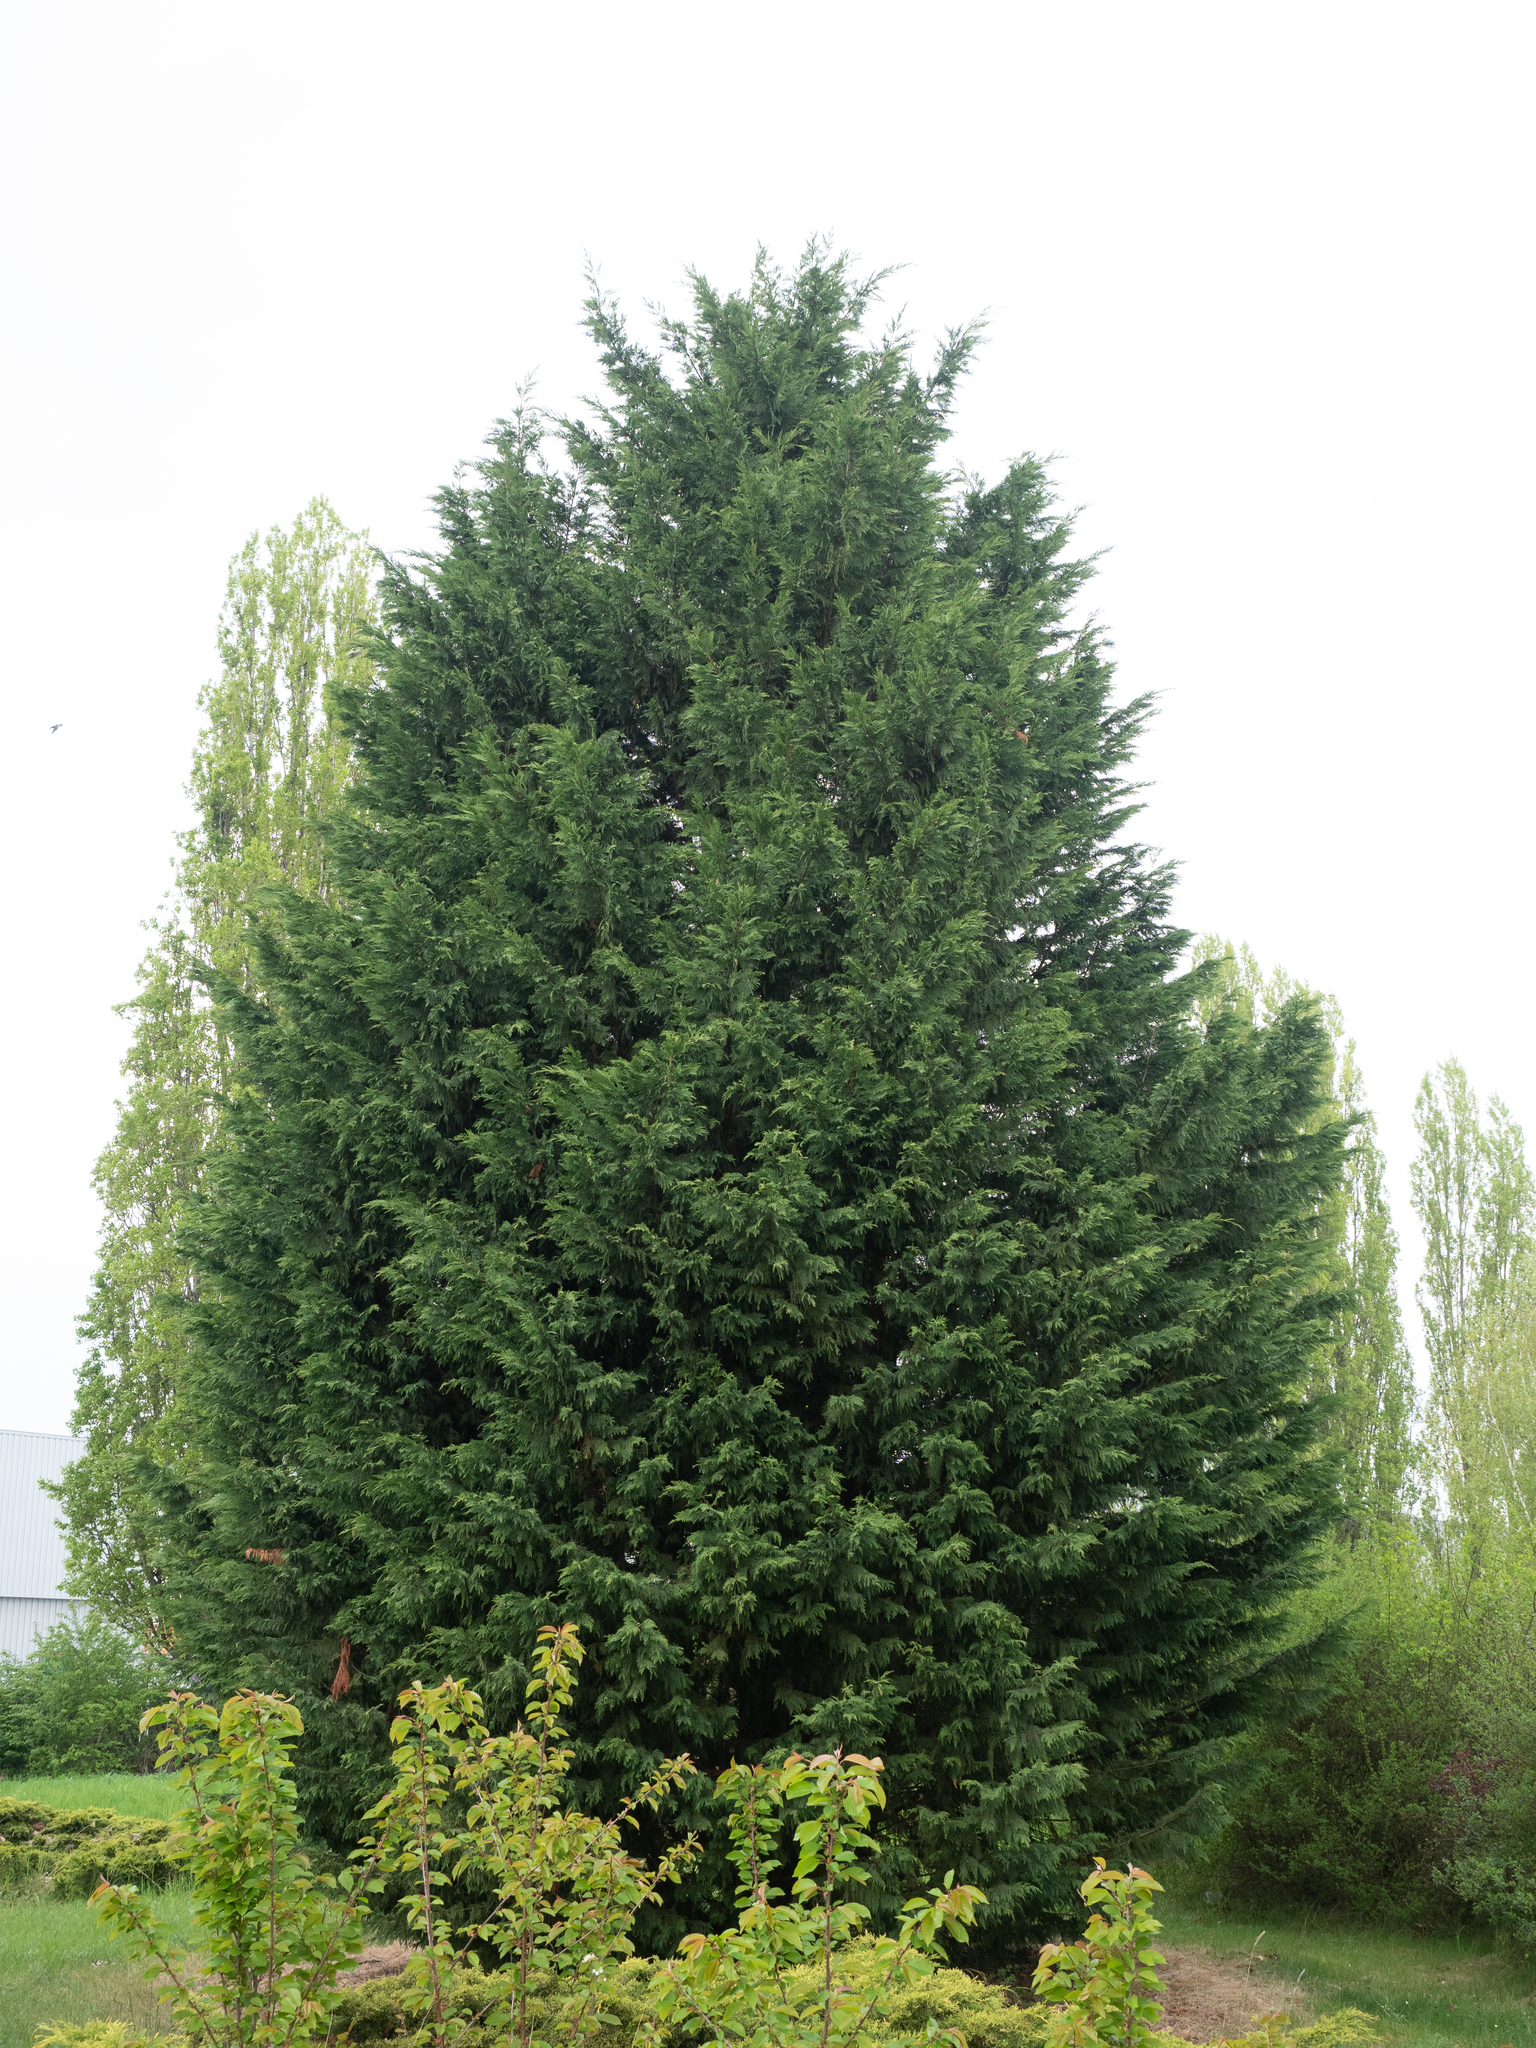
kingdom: Plantae
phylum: Tracheophyta
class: Pinopsida
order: Pinales
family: Cupressaceae
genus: Hesperotropsis
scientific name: Hesperotropsis leylandii
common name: Leyland cypress
